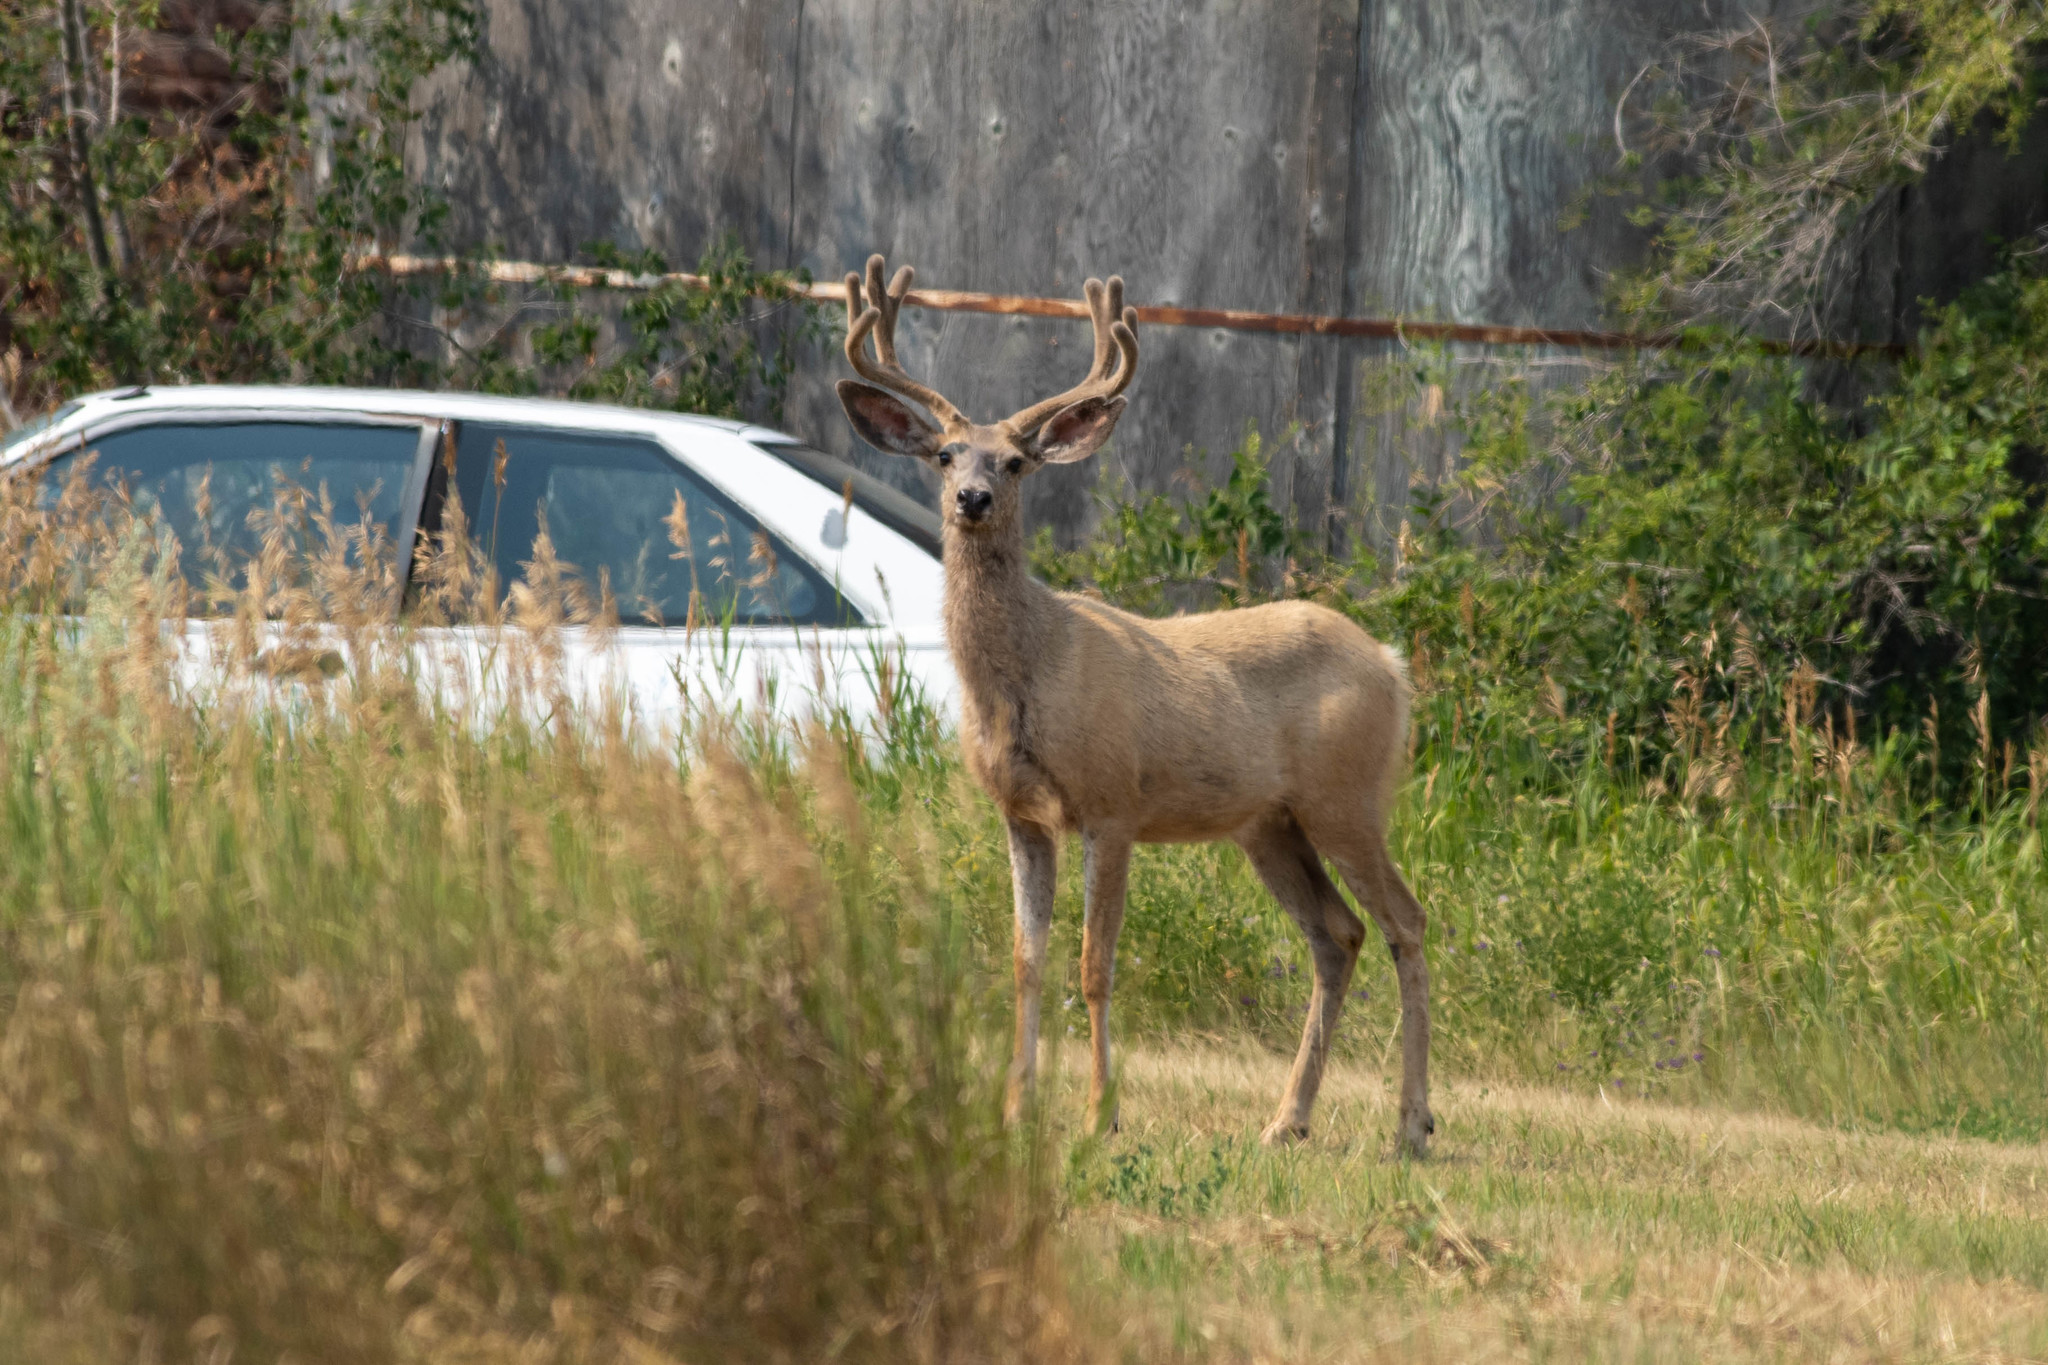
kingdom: Animalia
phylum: Chordata
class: Mammalia
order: Artiodactyla
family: Cervidae
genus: Odocoileus
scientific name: Odocoileus hemionus
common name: Mule deer
